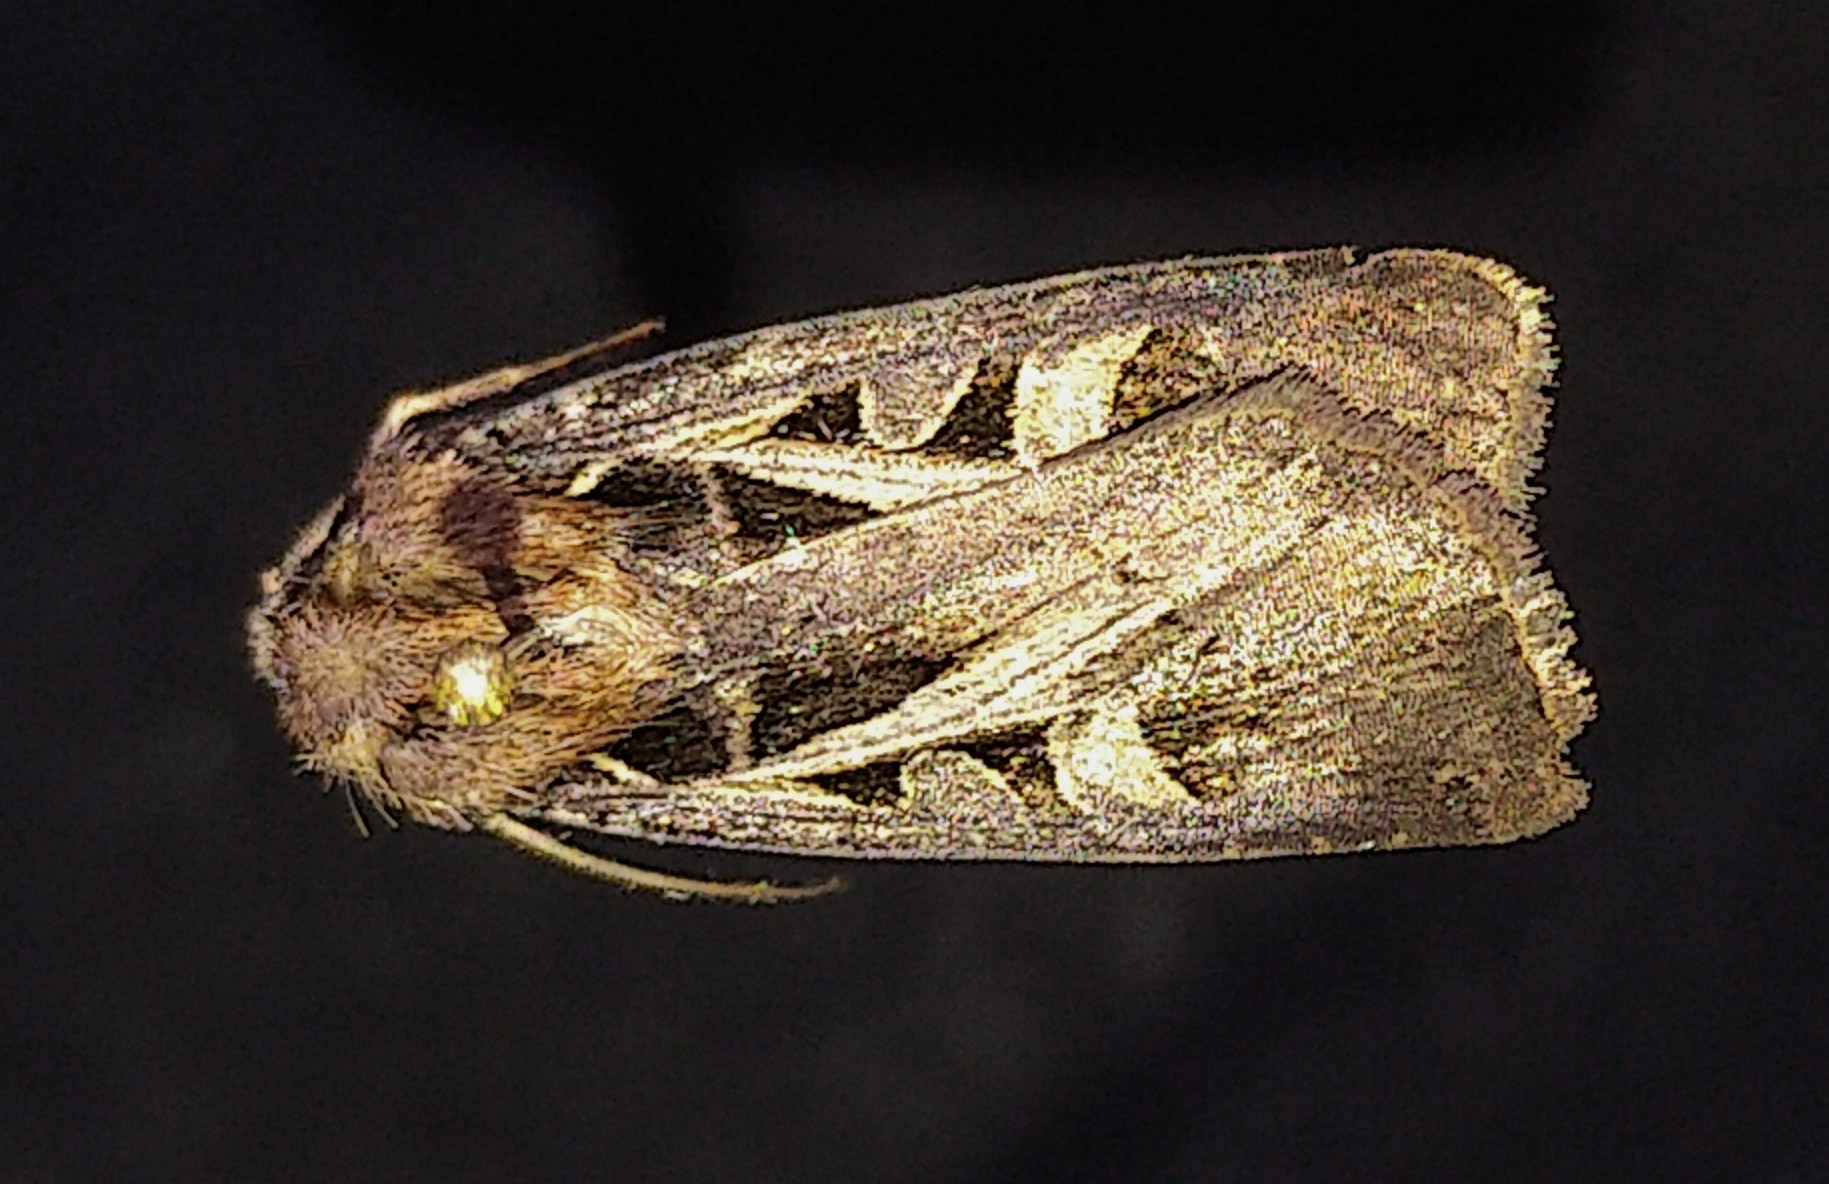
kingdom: Animalia
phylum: Arthropoda
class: Insecta
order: Lepidoptera
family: Noctuidae
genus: Feltia
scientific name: Feltia herilis
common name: Master's dart
